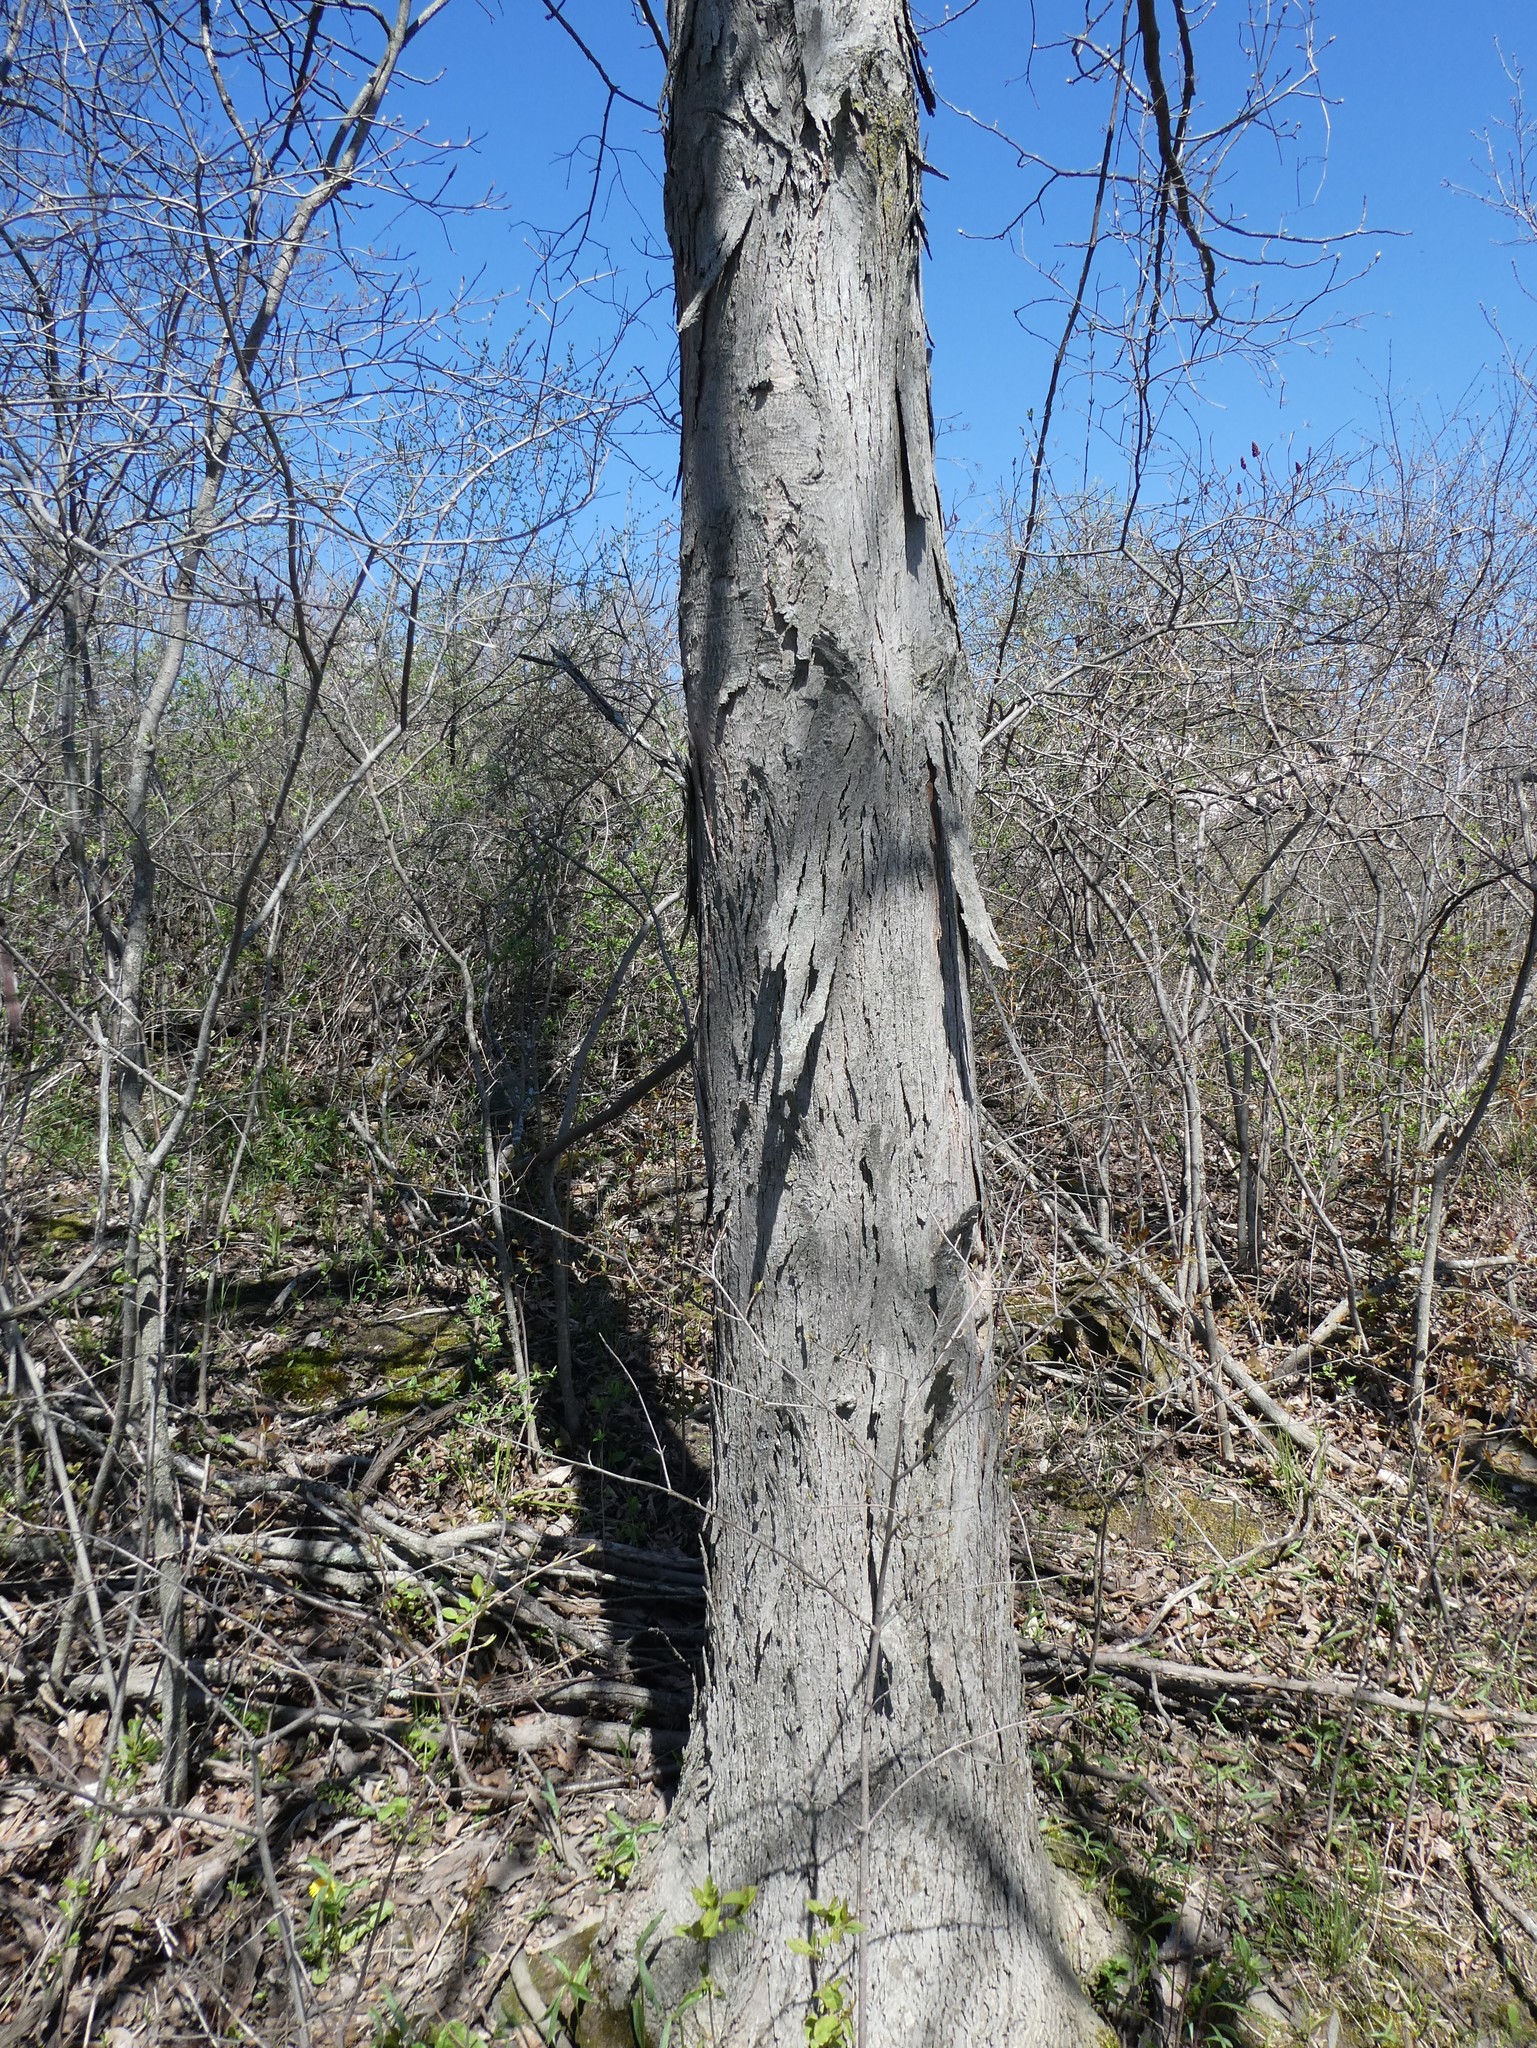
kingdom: Plantae
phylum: Tracheophyta
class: Magnoliopsida
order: Fagales
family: Juglandaceae
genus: Carya
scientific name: Carya ovata
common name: Shagbark hickory
